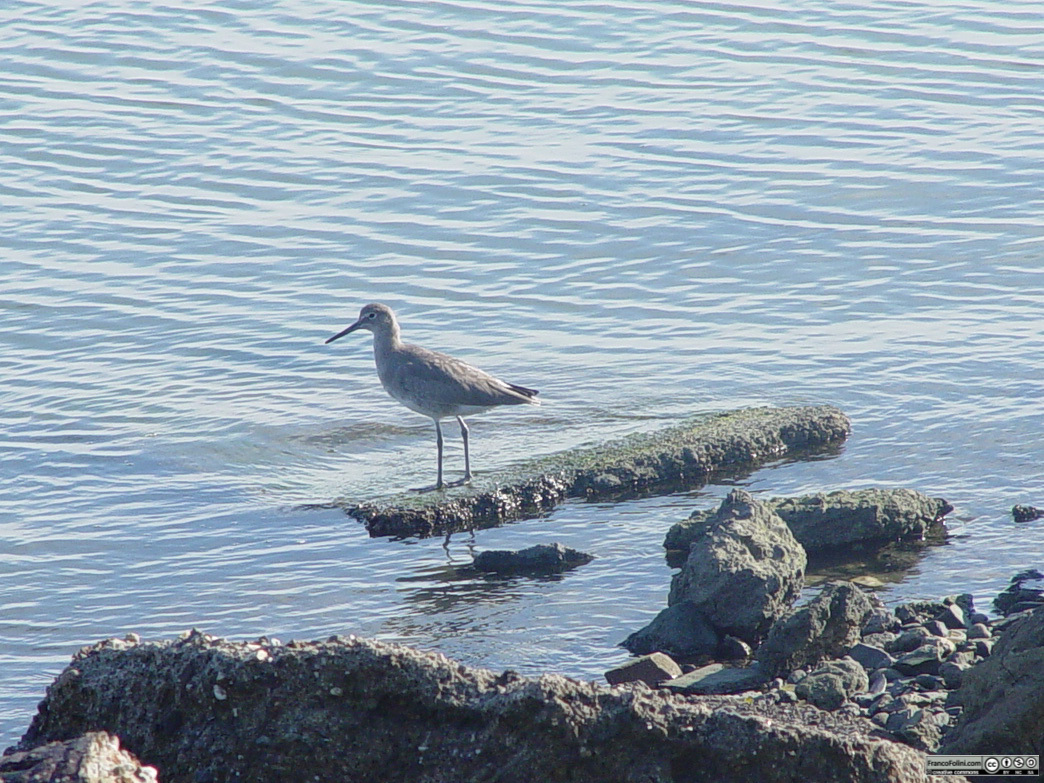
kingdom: Animalia
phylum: Chordata
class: Aves
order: Charadriiformes
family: Scolopacidae
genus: Tringa
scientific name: Tringa semipalmata
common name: Willet
